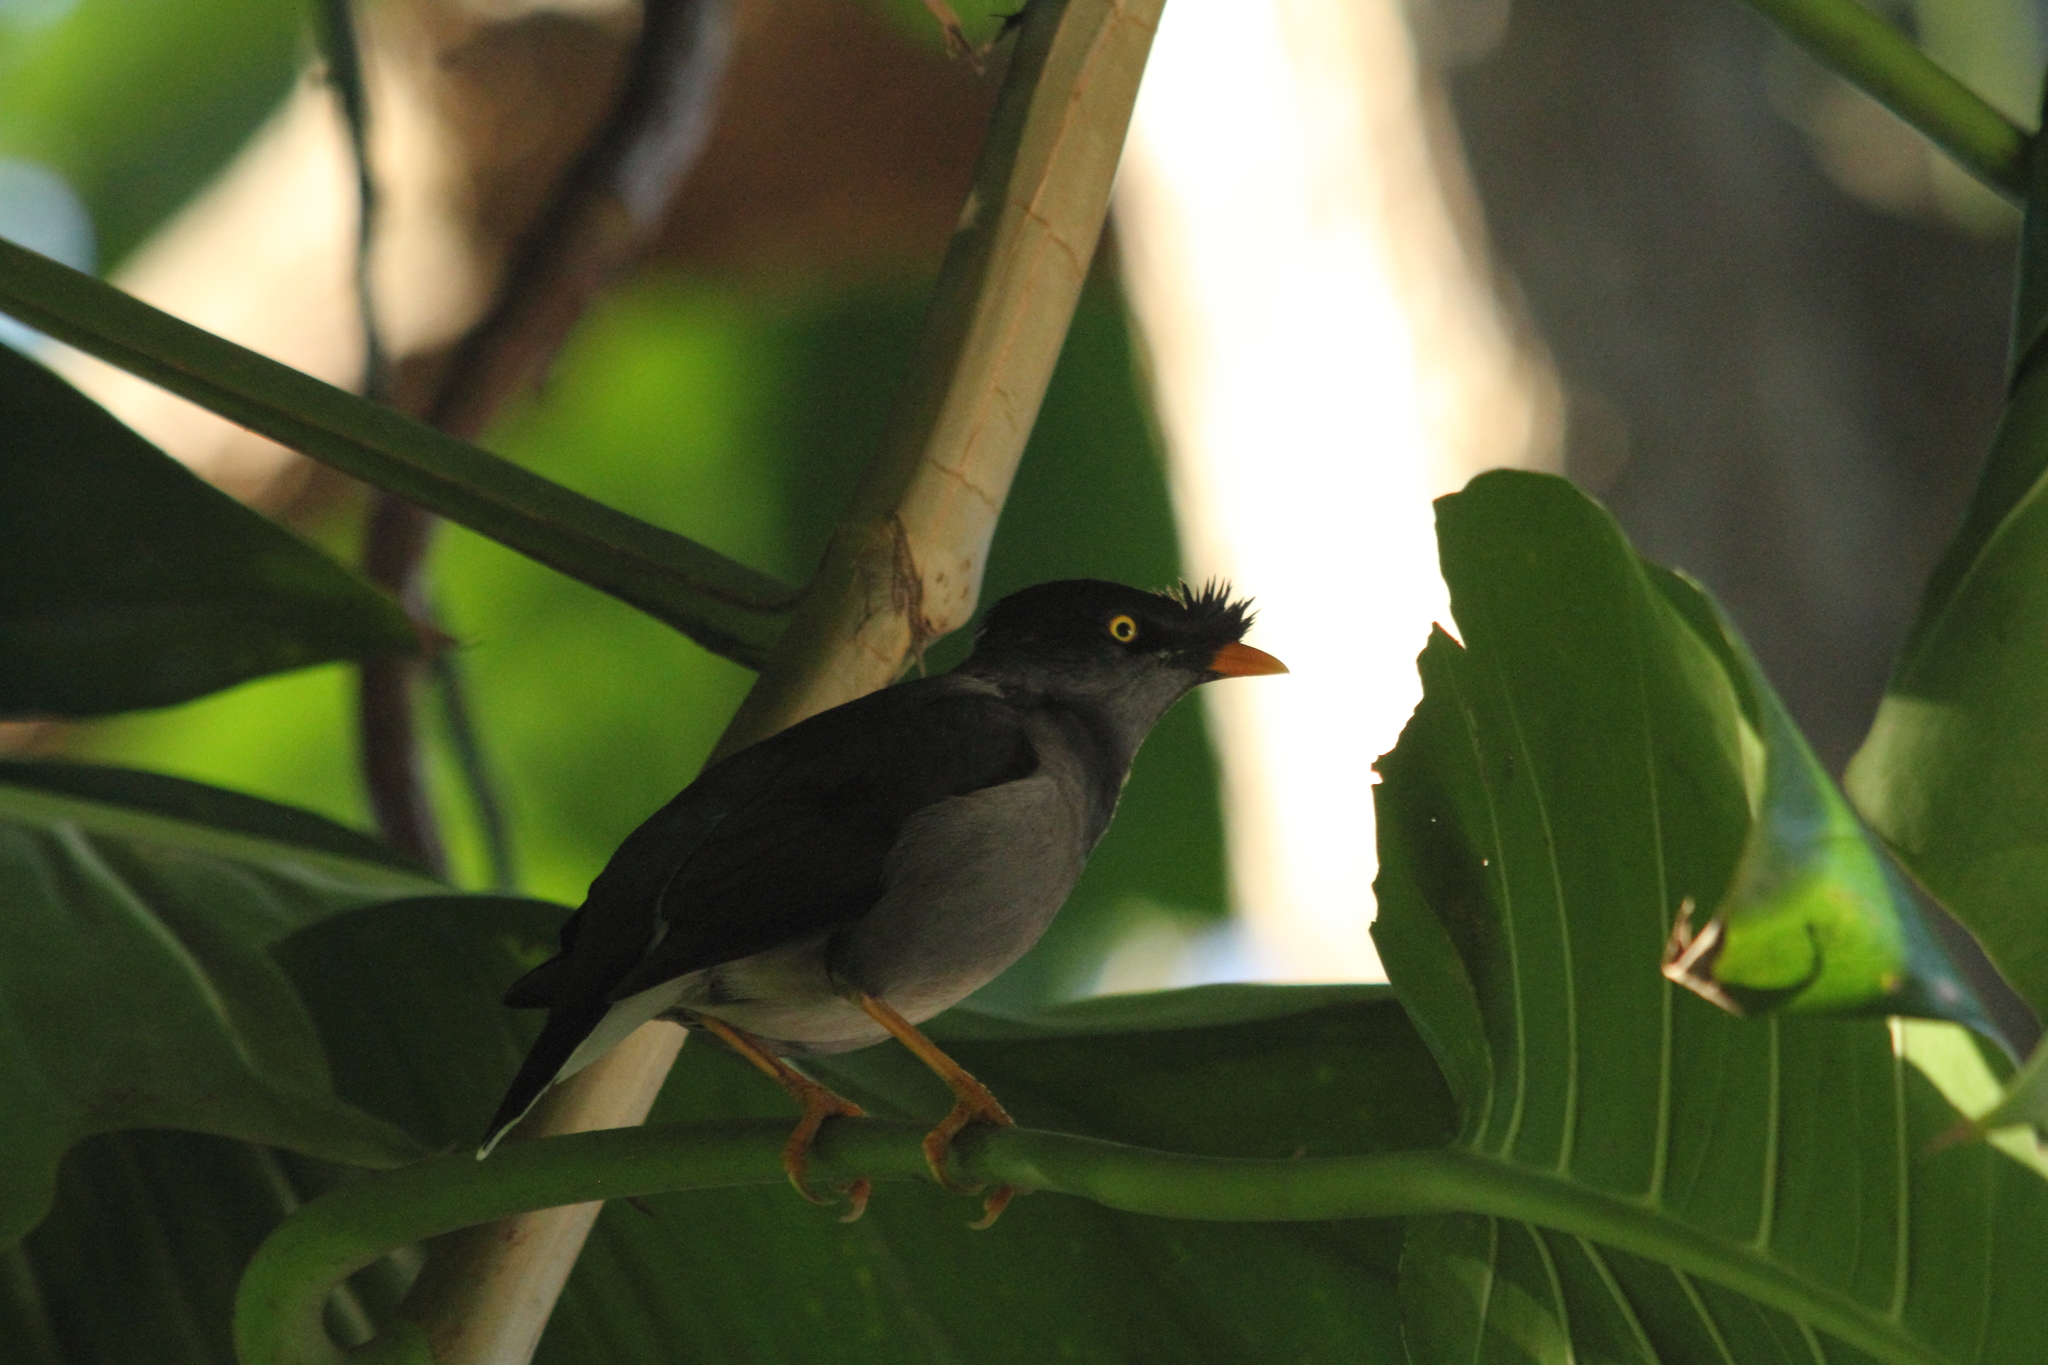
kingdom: Animalia
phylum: Chordata
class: Aves
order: Passeriformes
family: Sturnidae
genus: Acridotheres
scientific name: Acridotheres fuscus
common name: Jungle myna
